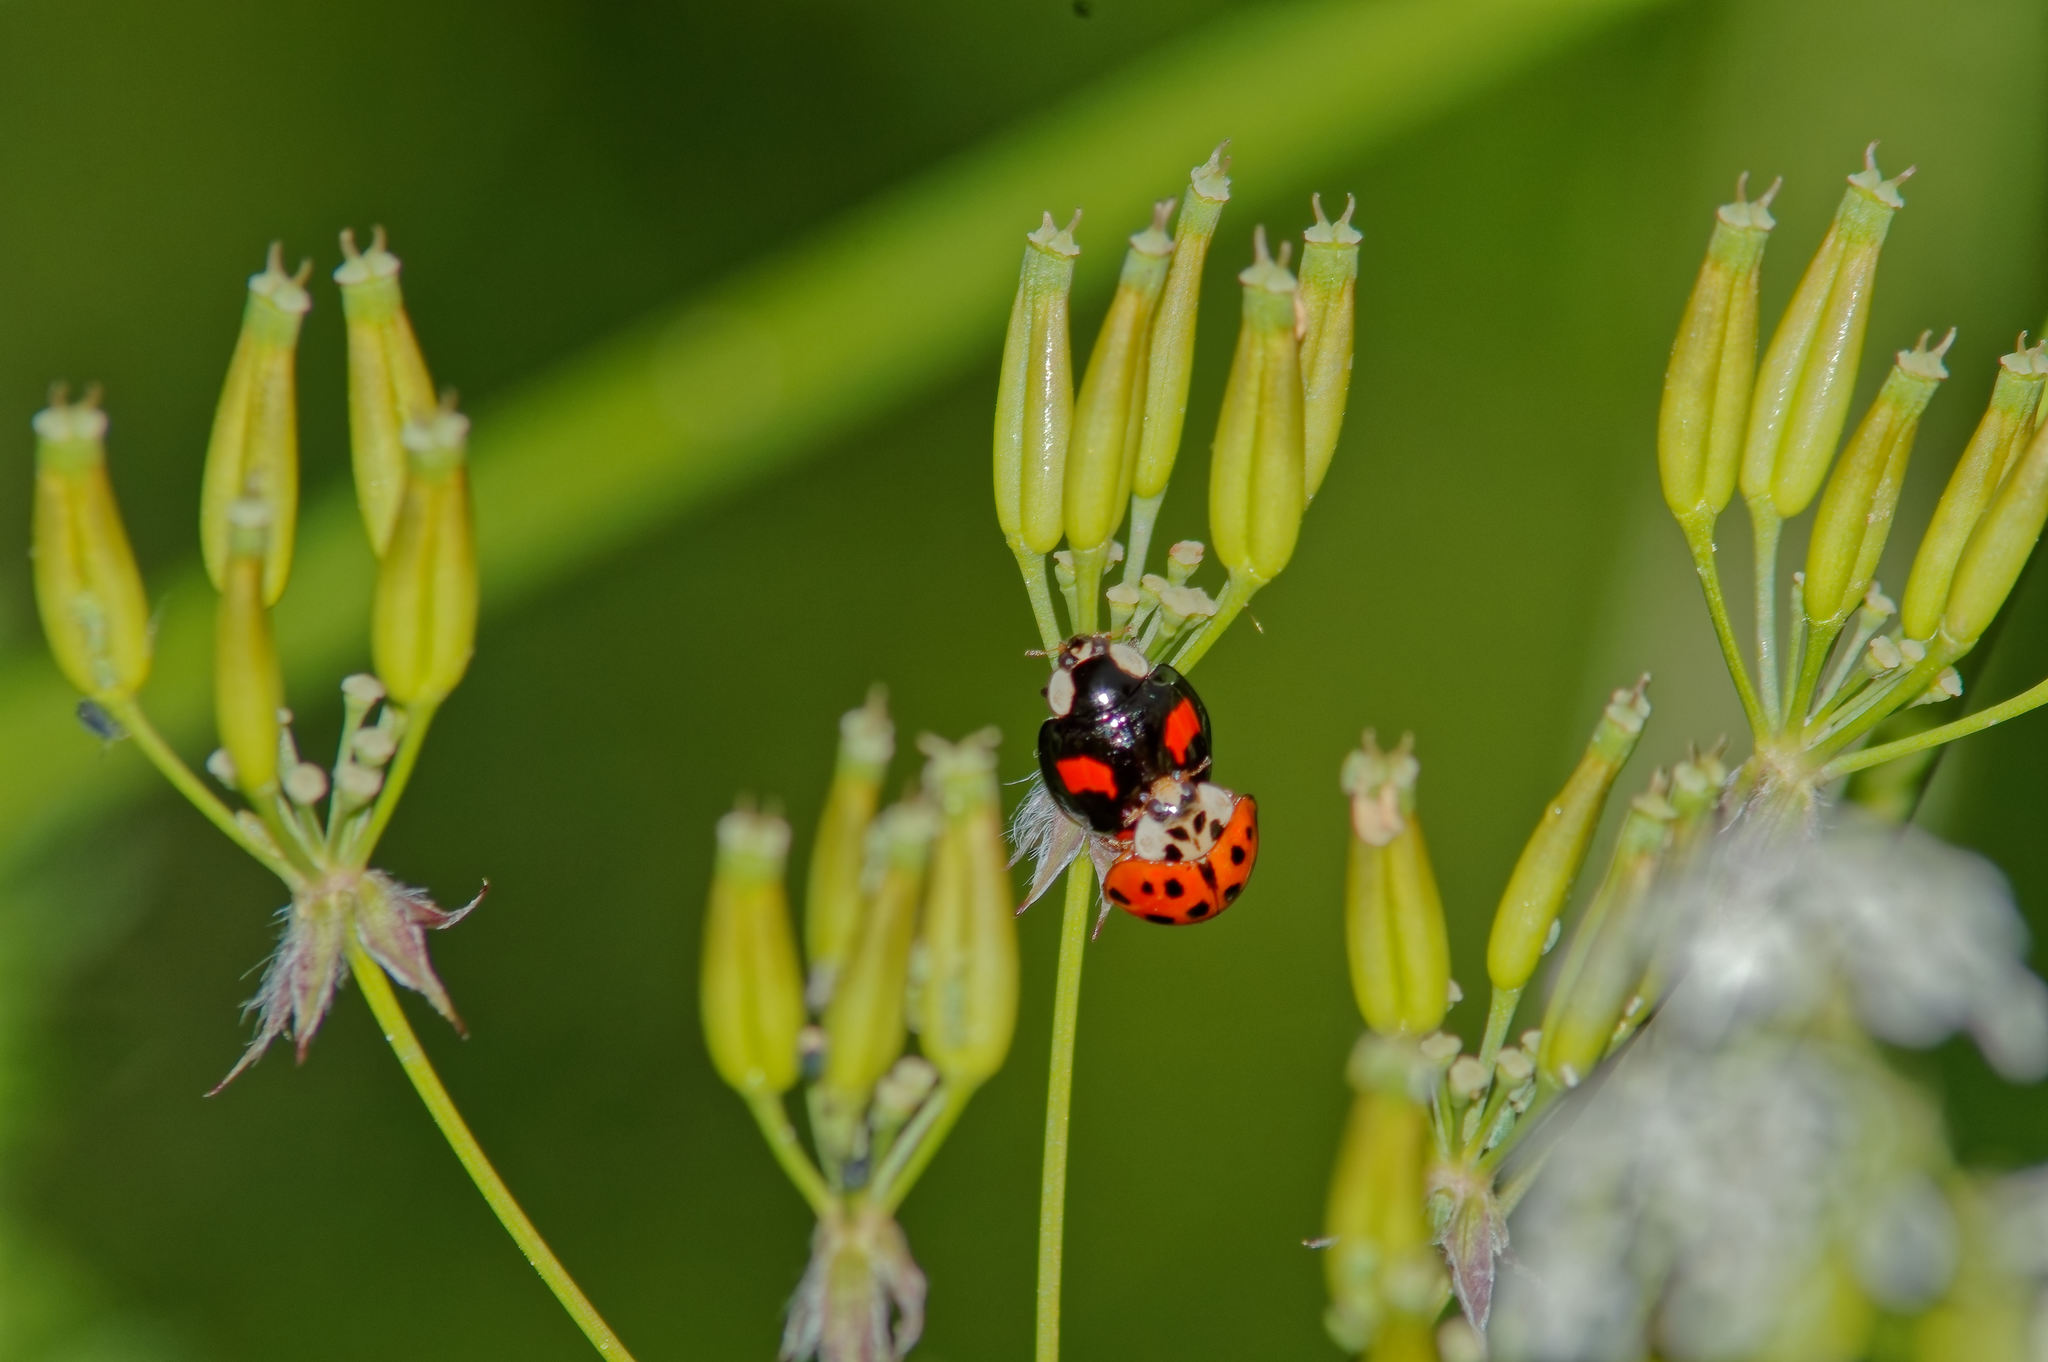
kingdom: Animalia
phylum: Arthropoda
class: Insecta
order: Coleoptera
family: Coccinellidae
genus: Harmonia
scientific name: Harmonia axyridis
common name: Harlequin ladybird
